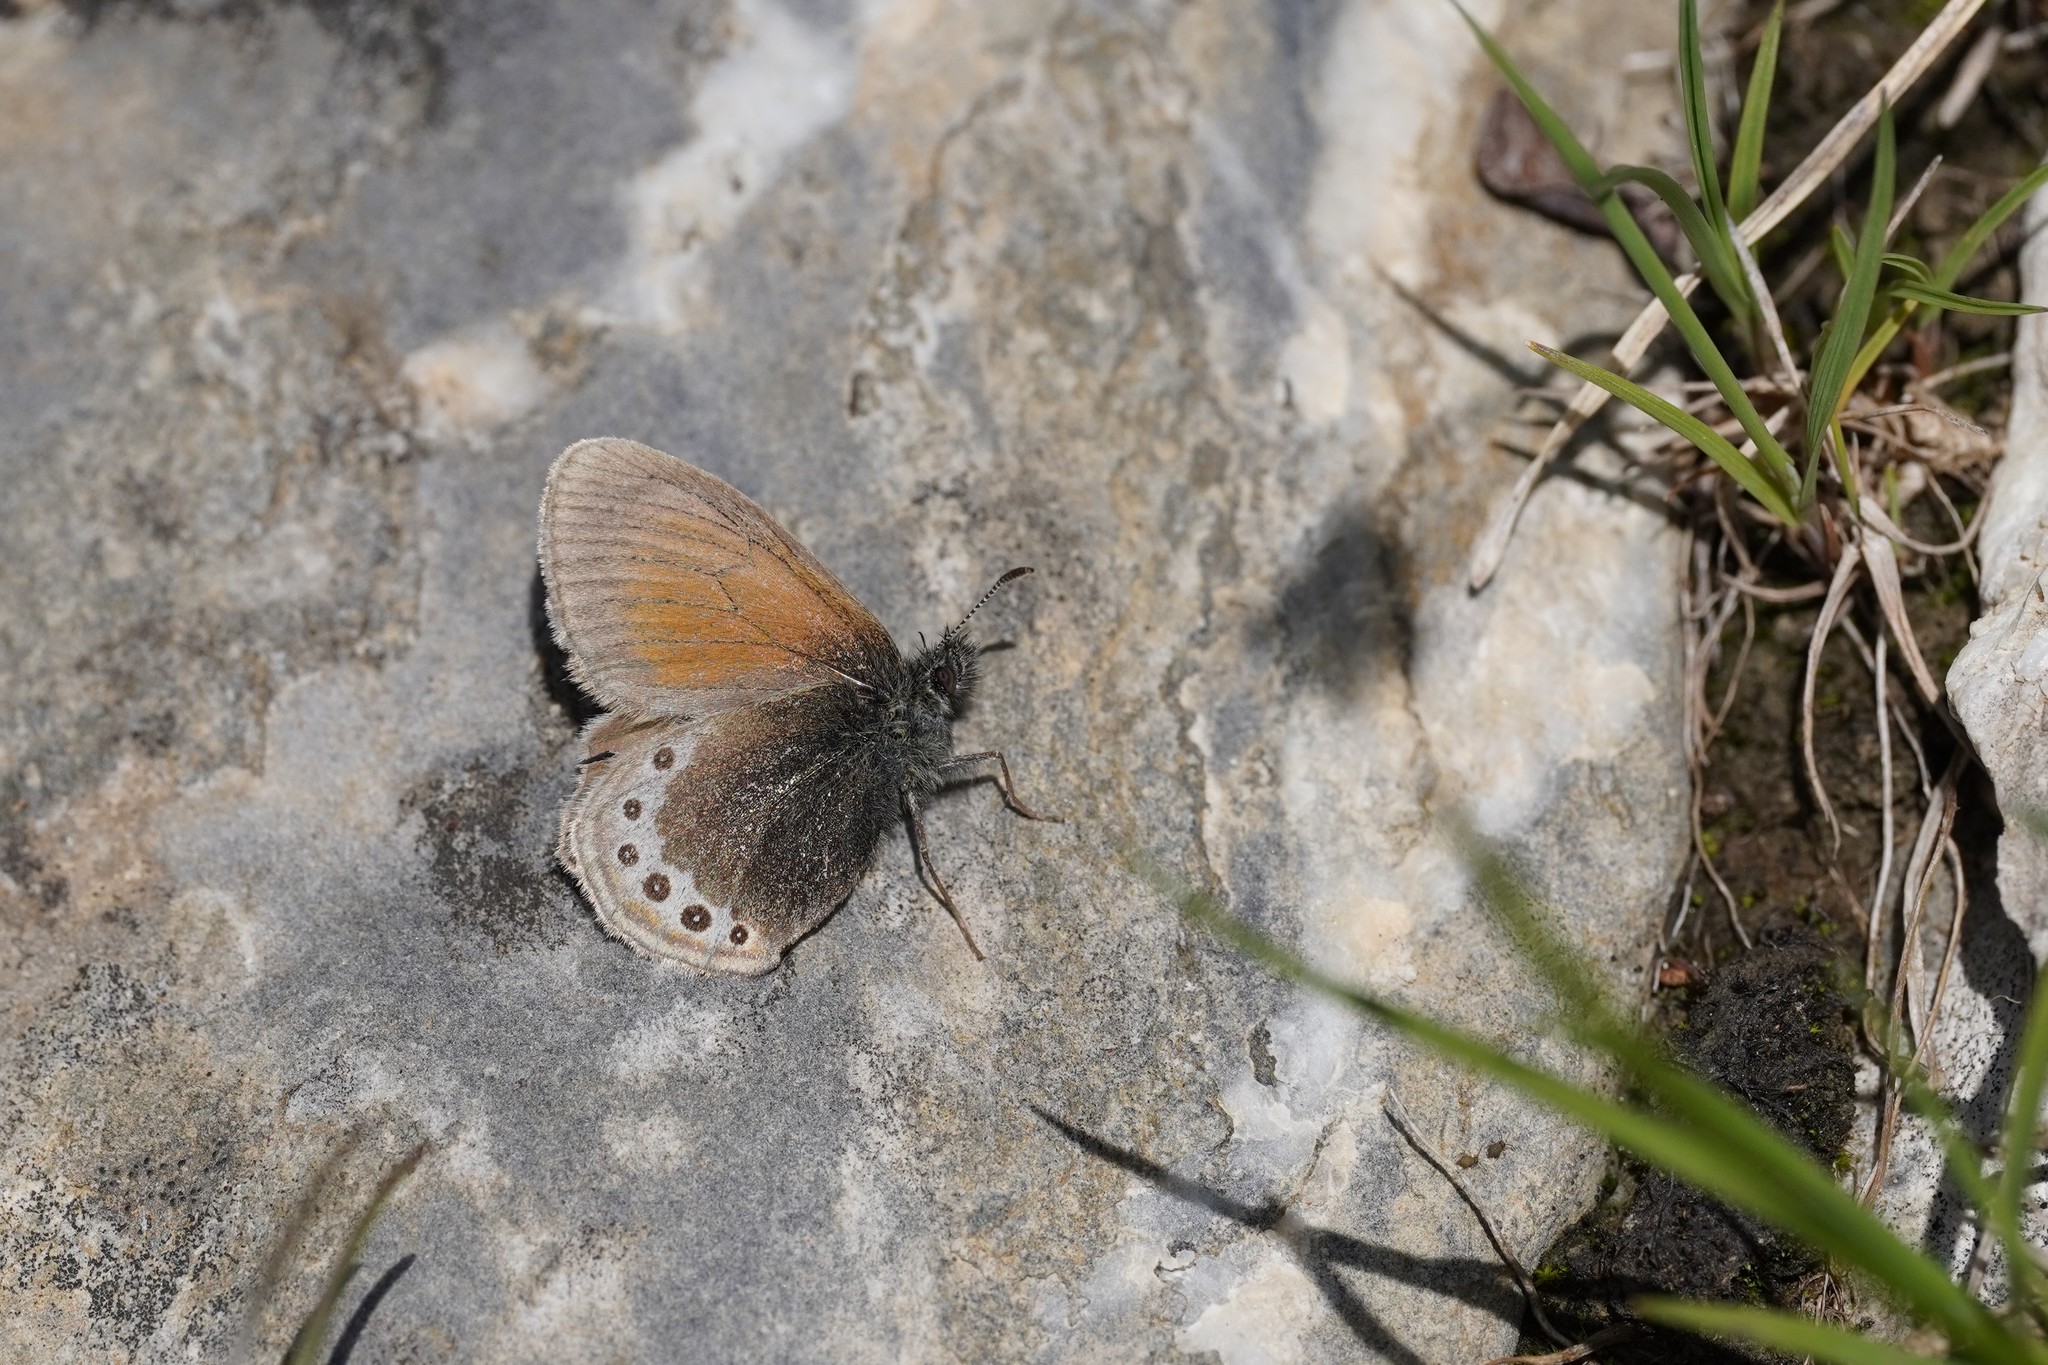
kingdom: Animalia
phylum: Arthropoda
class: Insecta
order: Lepidoptera
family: Nymphalidae
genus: Coenonympha
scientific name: Coenonympha
